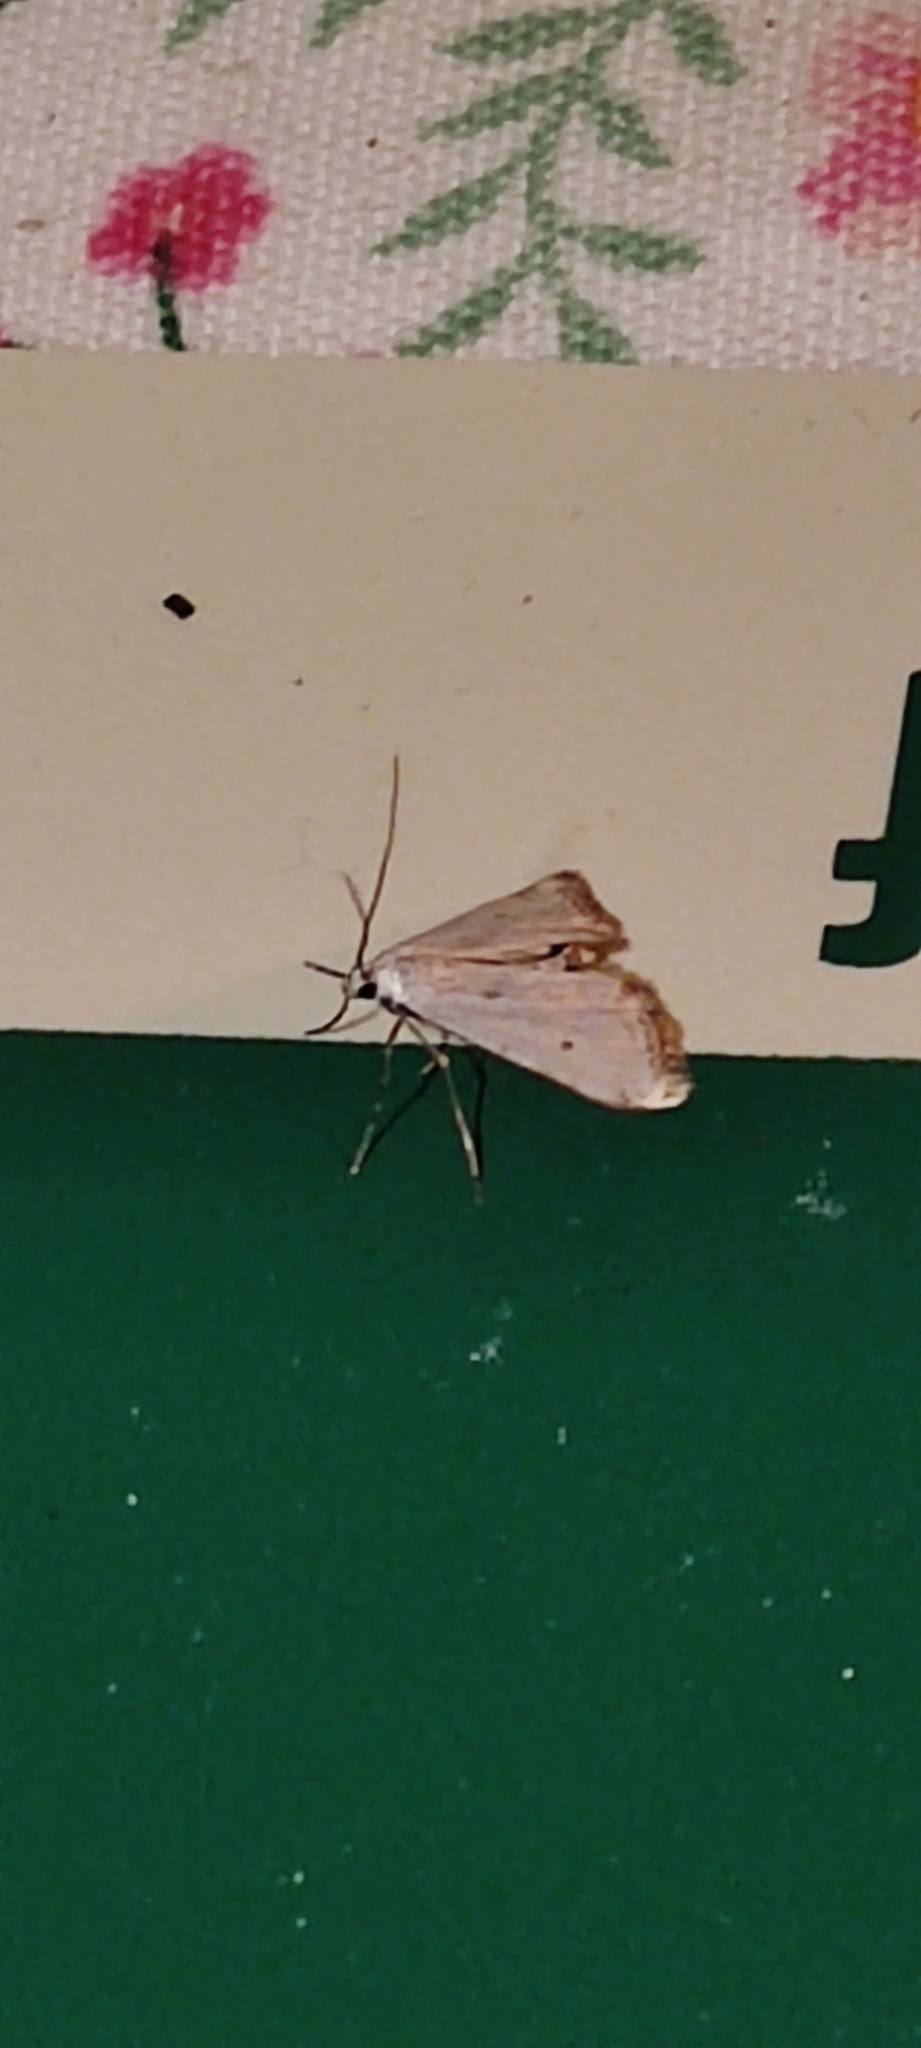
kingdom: Animalia
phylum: Arthropoda
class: Insecta
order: Lepidoptera
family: Crambidae
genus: Cataclysta
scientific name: Cataclysta lemnata
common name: Small china-mark
